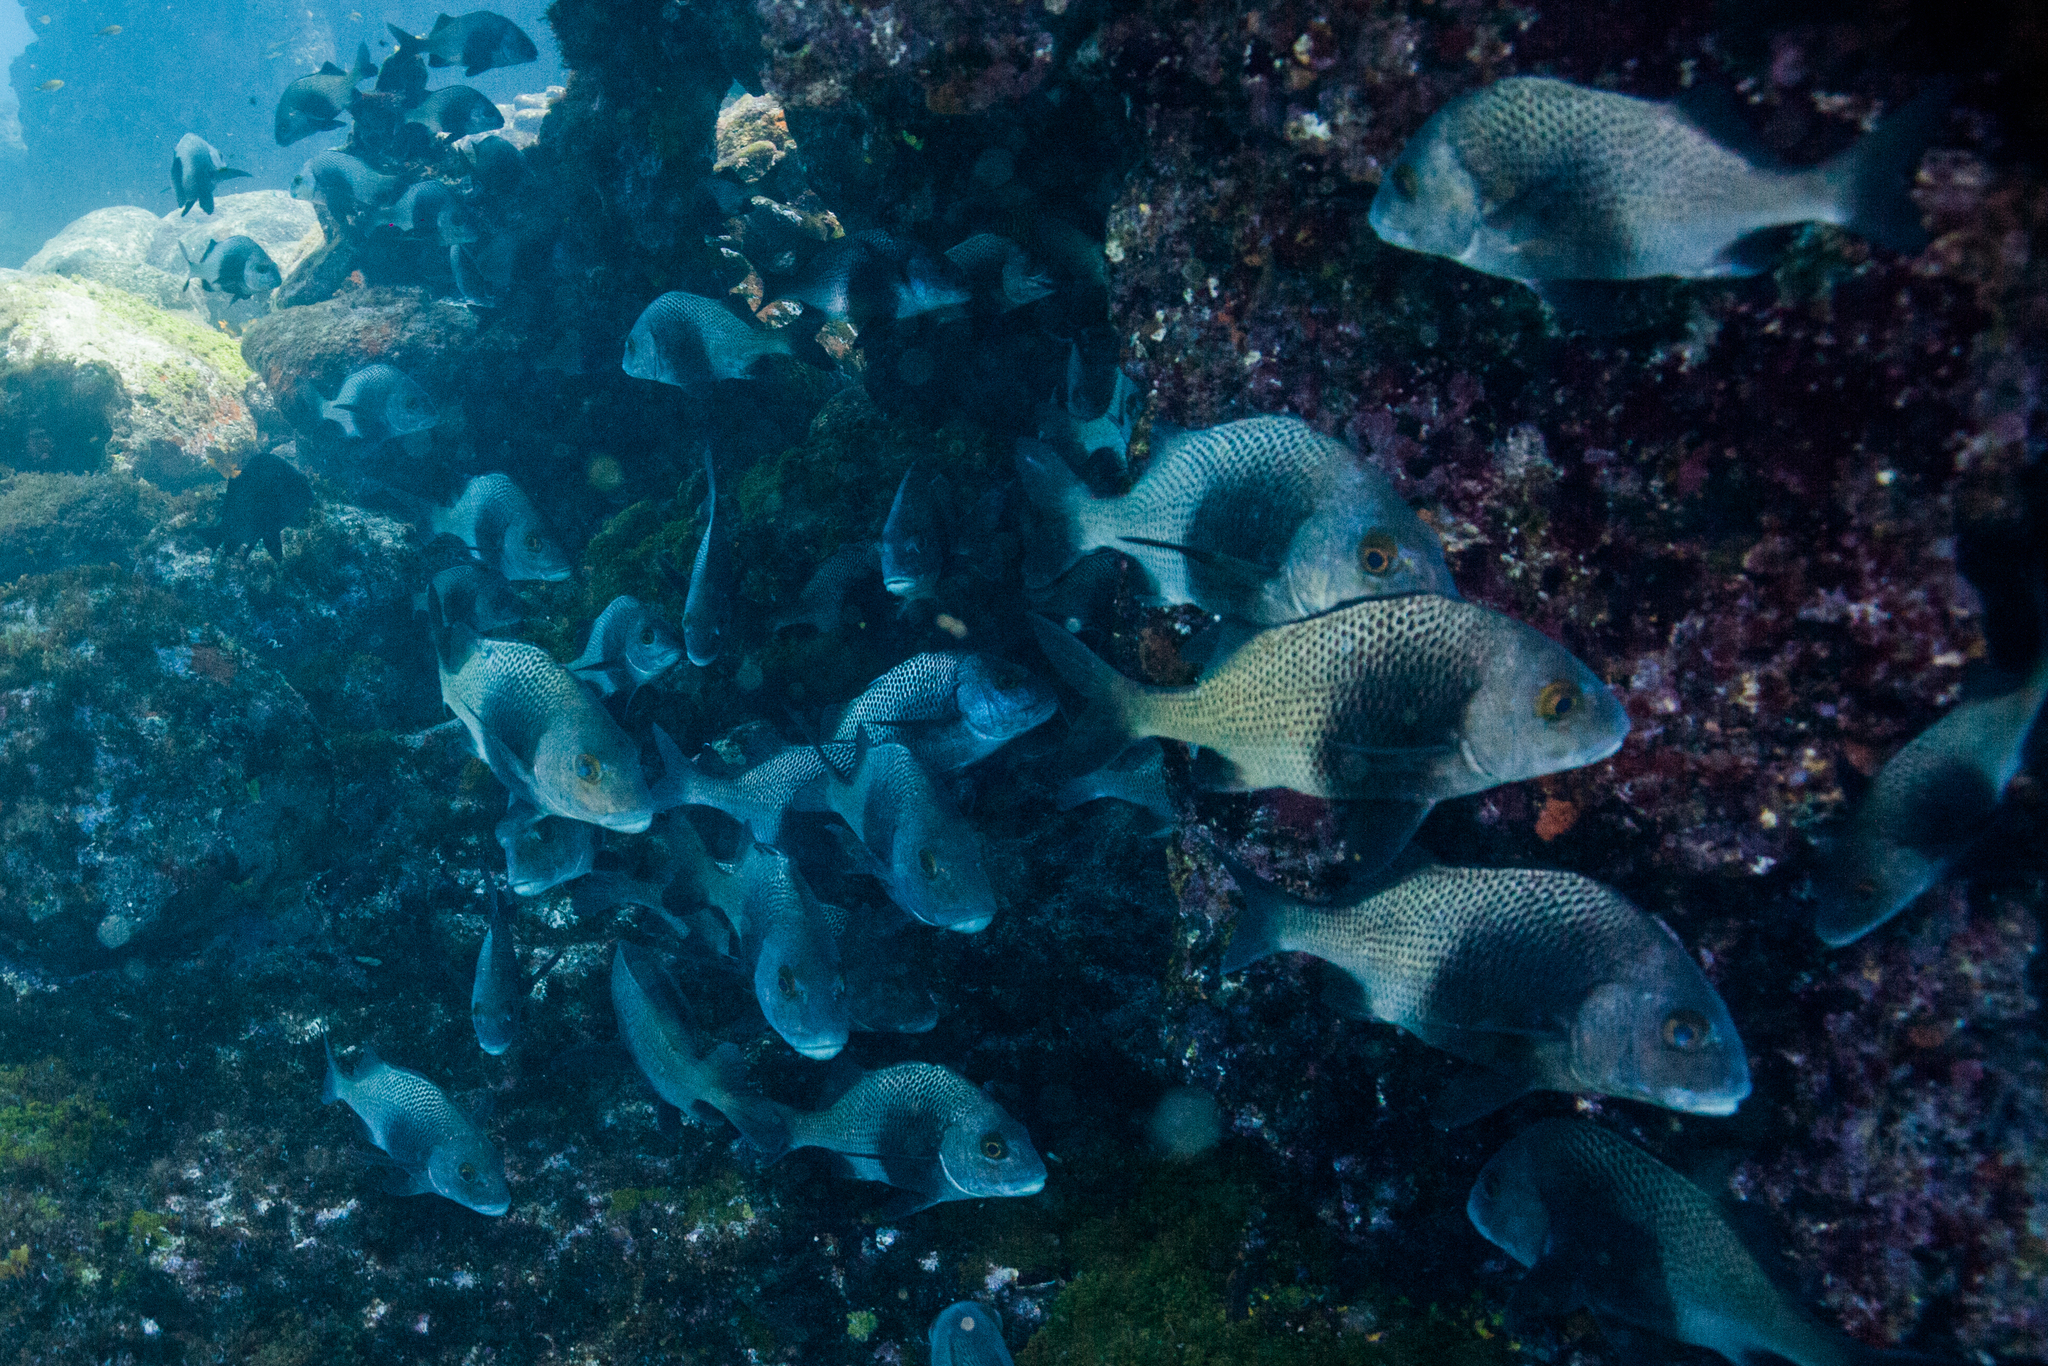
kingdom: Animalia
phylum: Chordata
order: Perciformes
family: Haemulidae
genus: Anisotremus
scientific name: Anisotremus surinamensis
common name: Black margate
